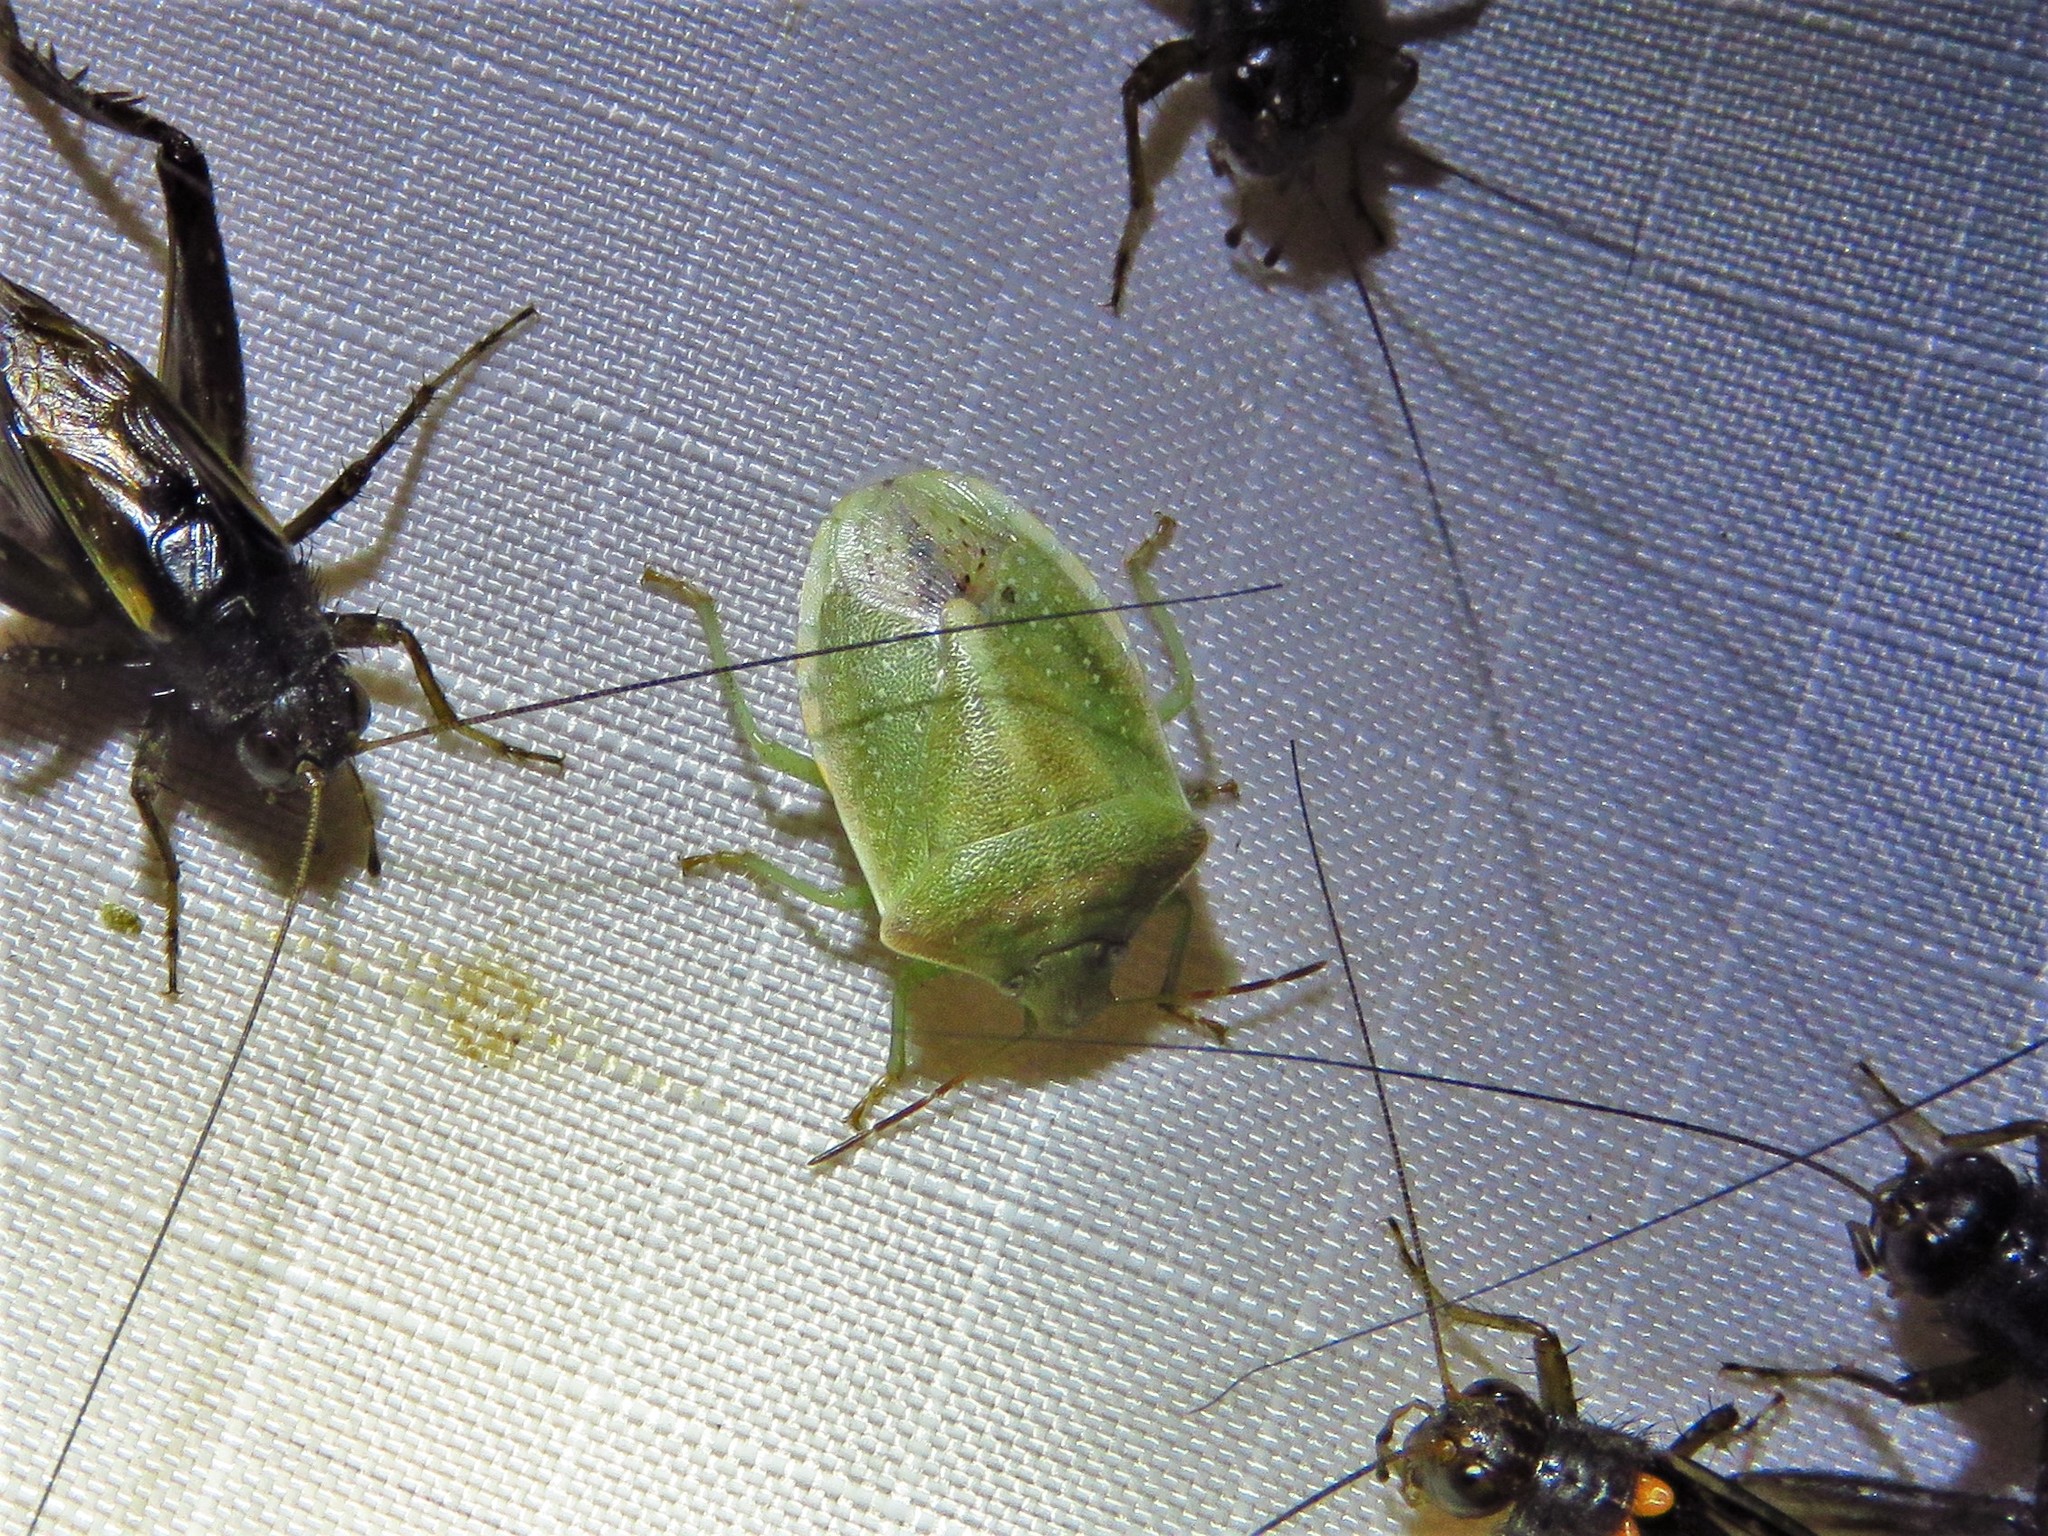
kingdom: Animalia
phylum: Arthropoda
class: Insecta
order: Hemiptera
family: Pentatomidae
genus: Thyanta
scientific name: Thyanta custator
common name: Stink bug
